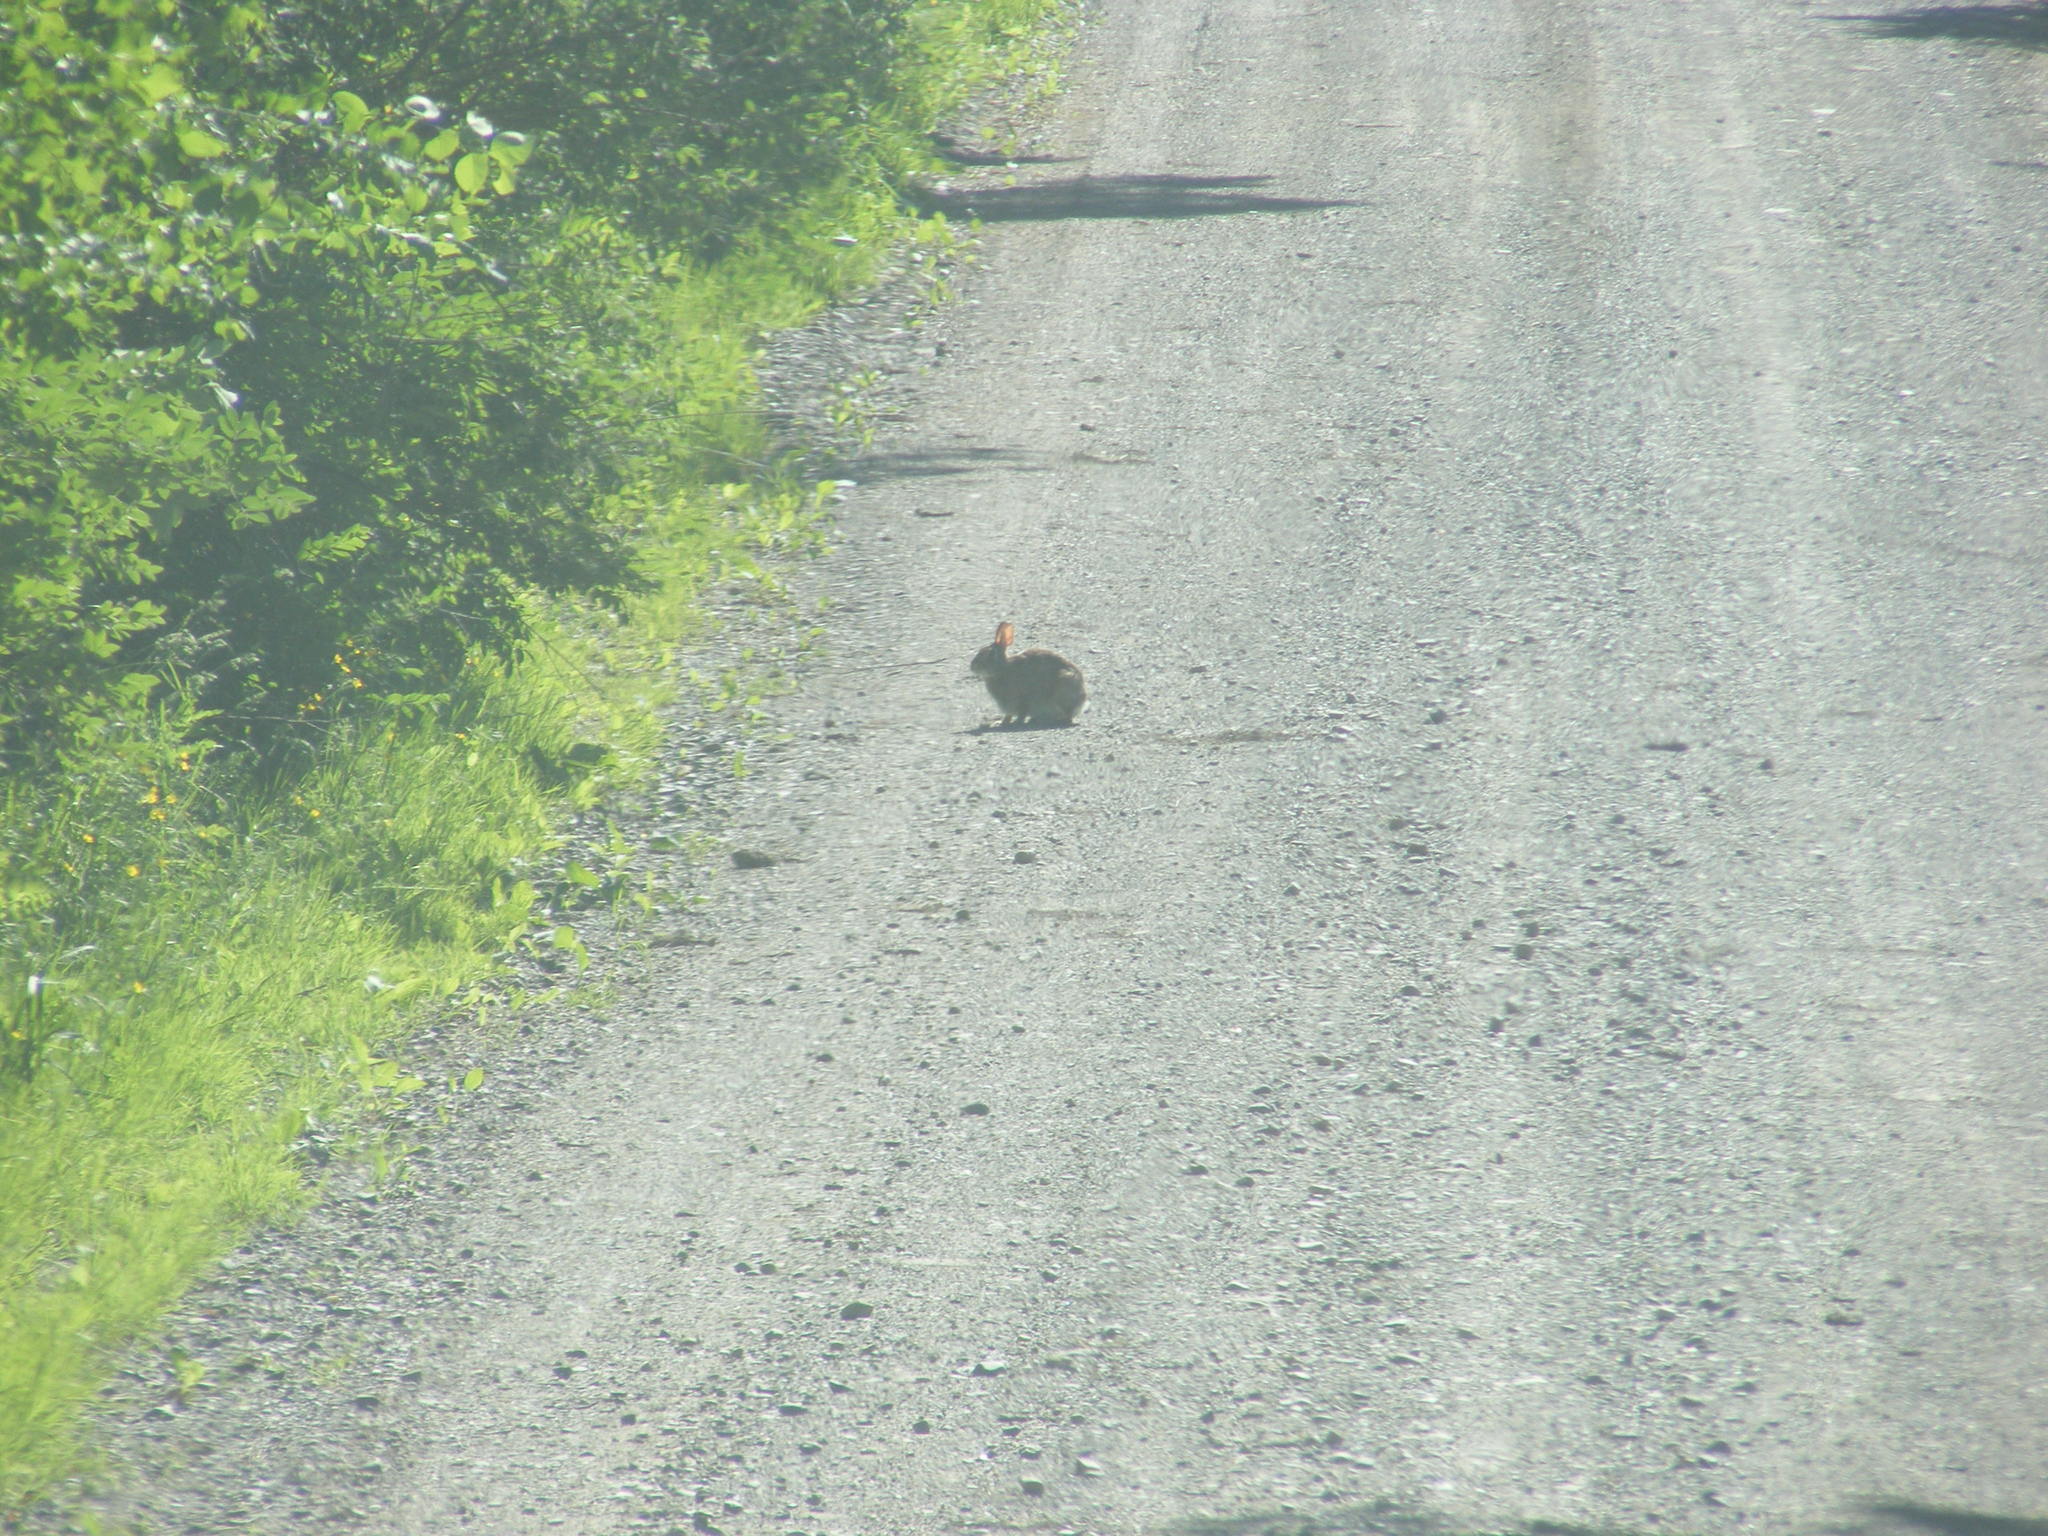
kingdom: Animalia
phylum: Chordata
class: Mammalia
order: Lagomorpha
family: Leporidae
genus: Sylvilagus
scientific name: Sylvilagus floridanus
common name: Eastern cottontail
